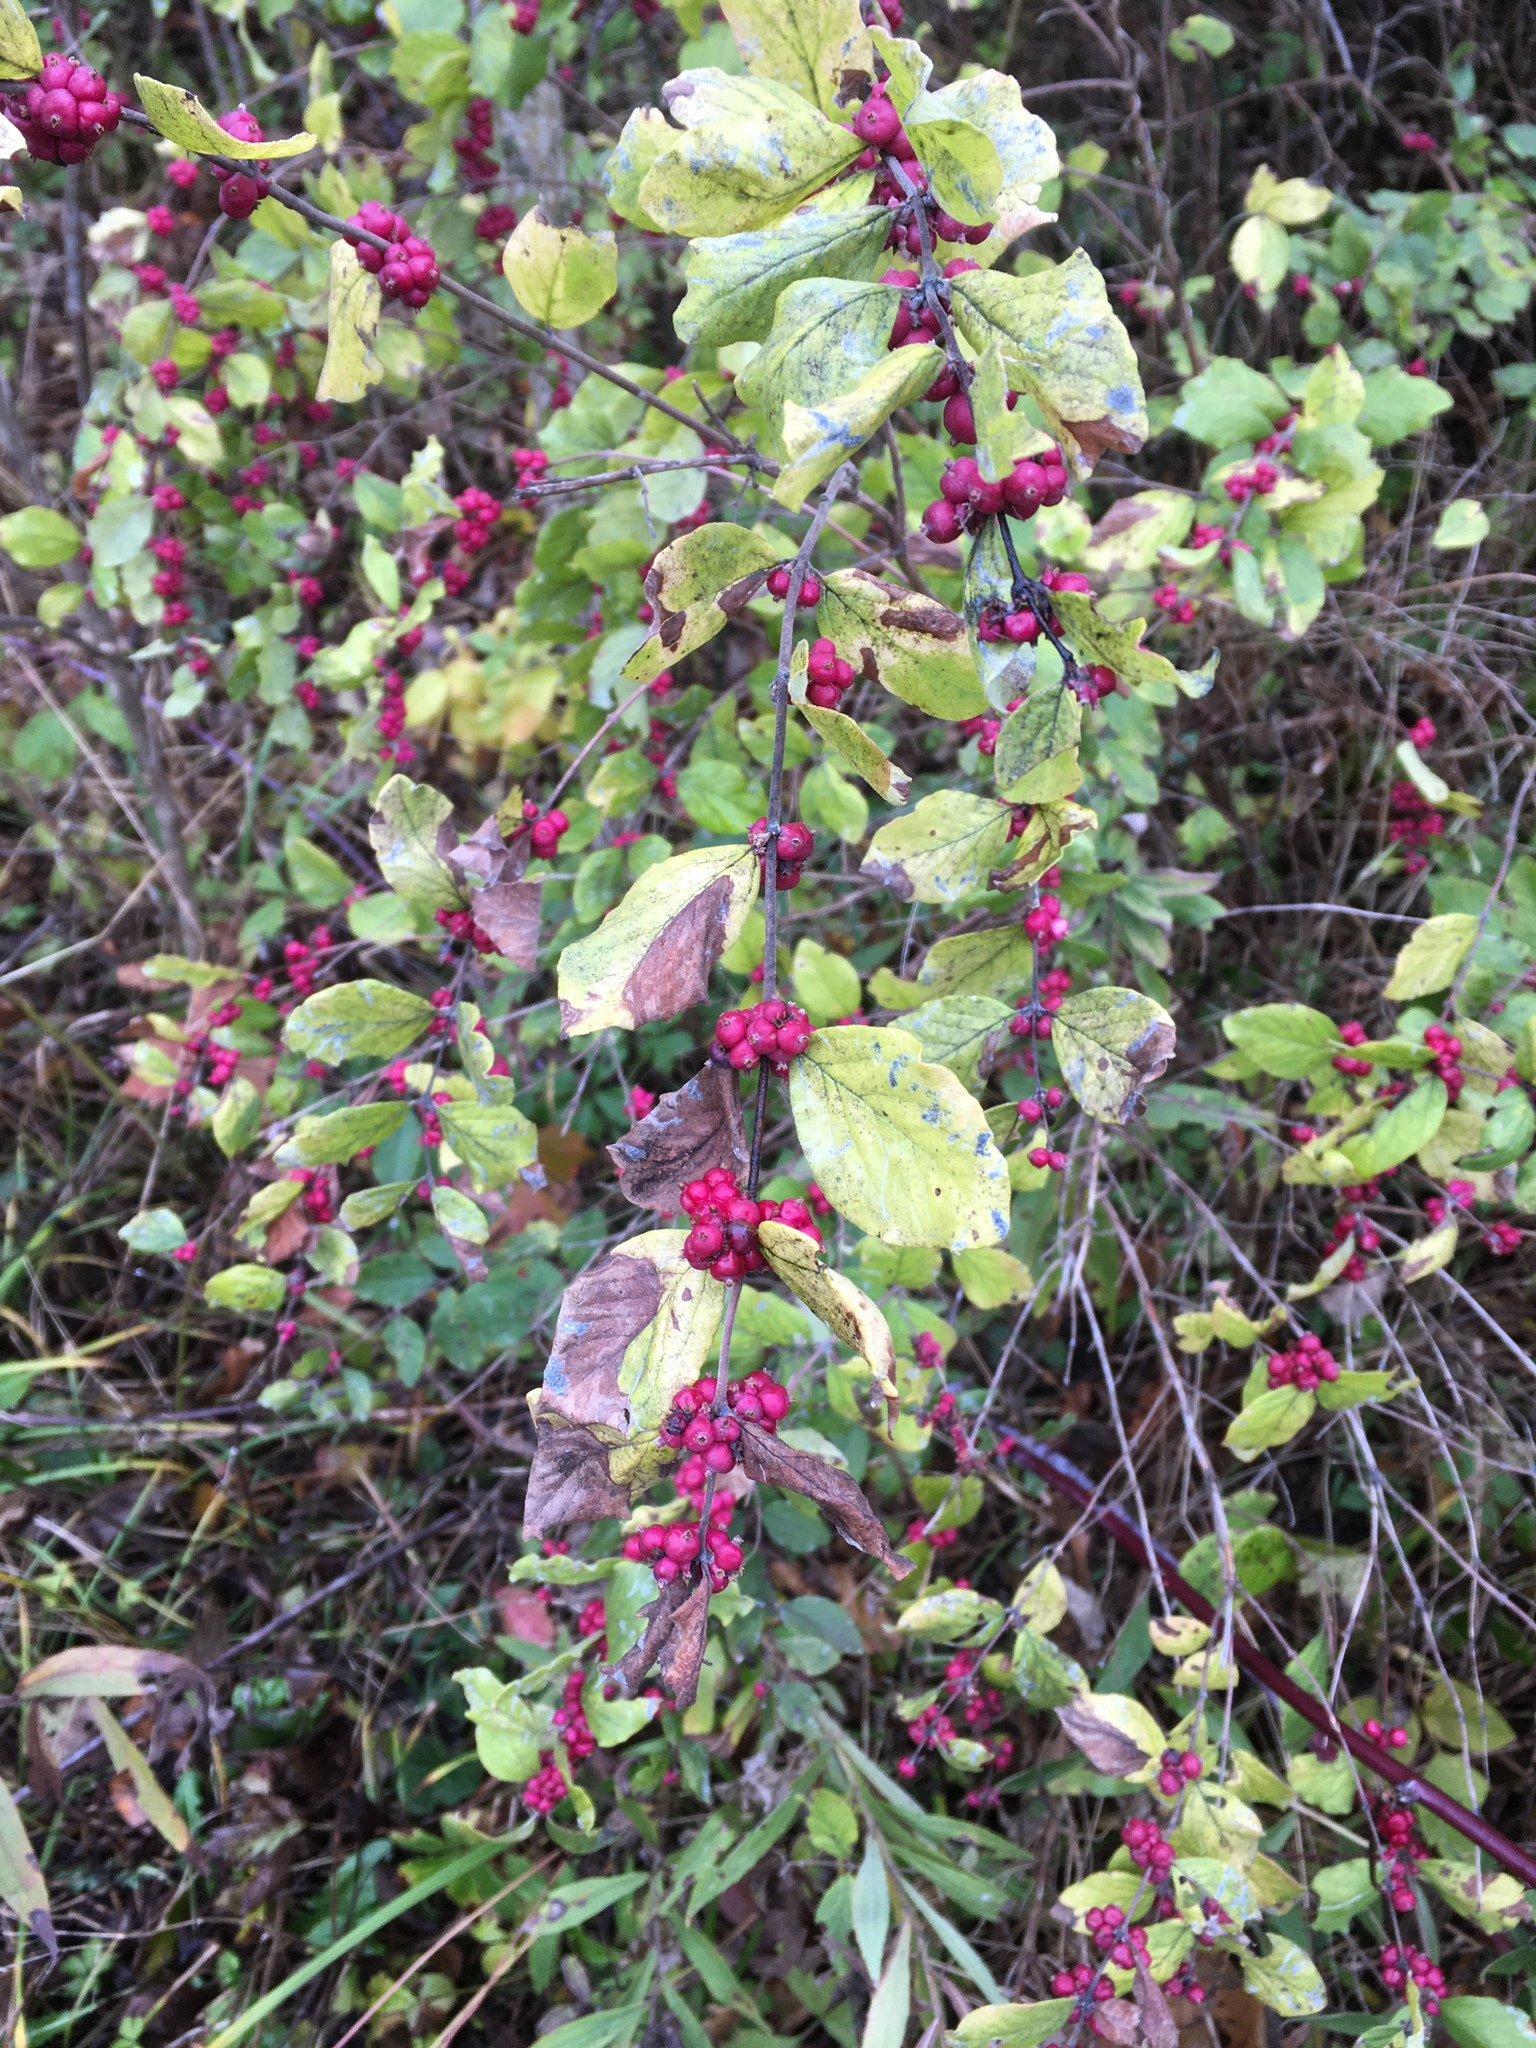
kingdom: Plantae
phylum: Tracheophyta
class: Magnoliopsida
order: Dipsacales
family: Caprifoliaceae
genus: Symphoricarpos
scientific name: Symphoricarpos orbiculatus
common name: Coralberry
